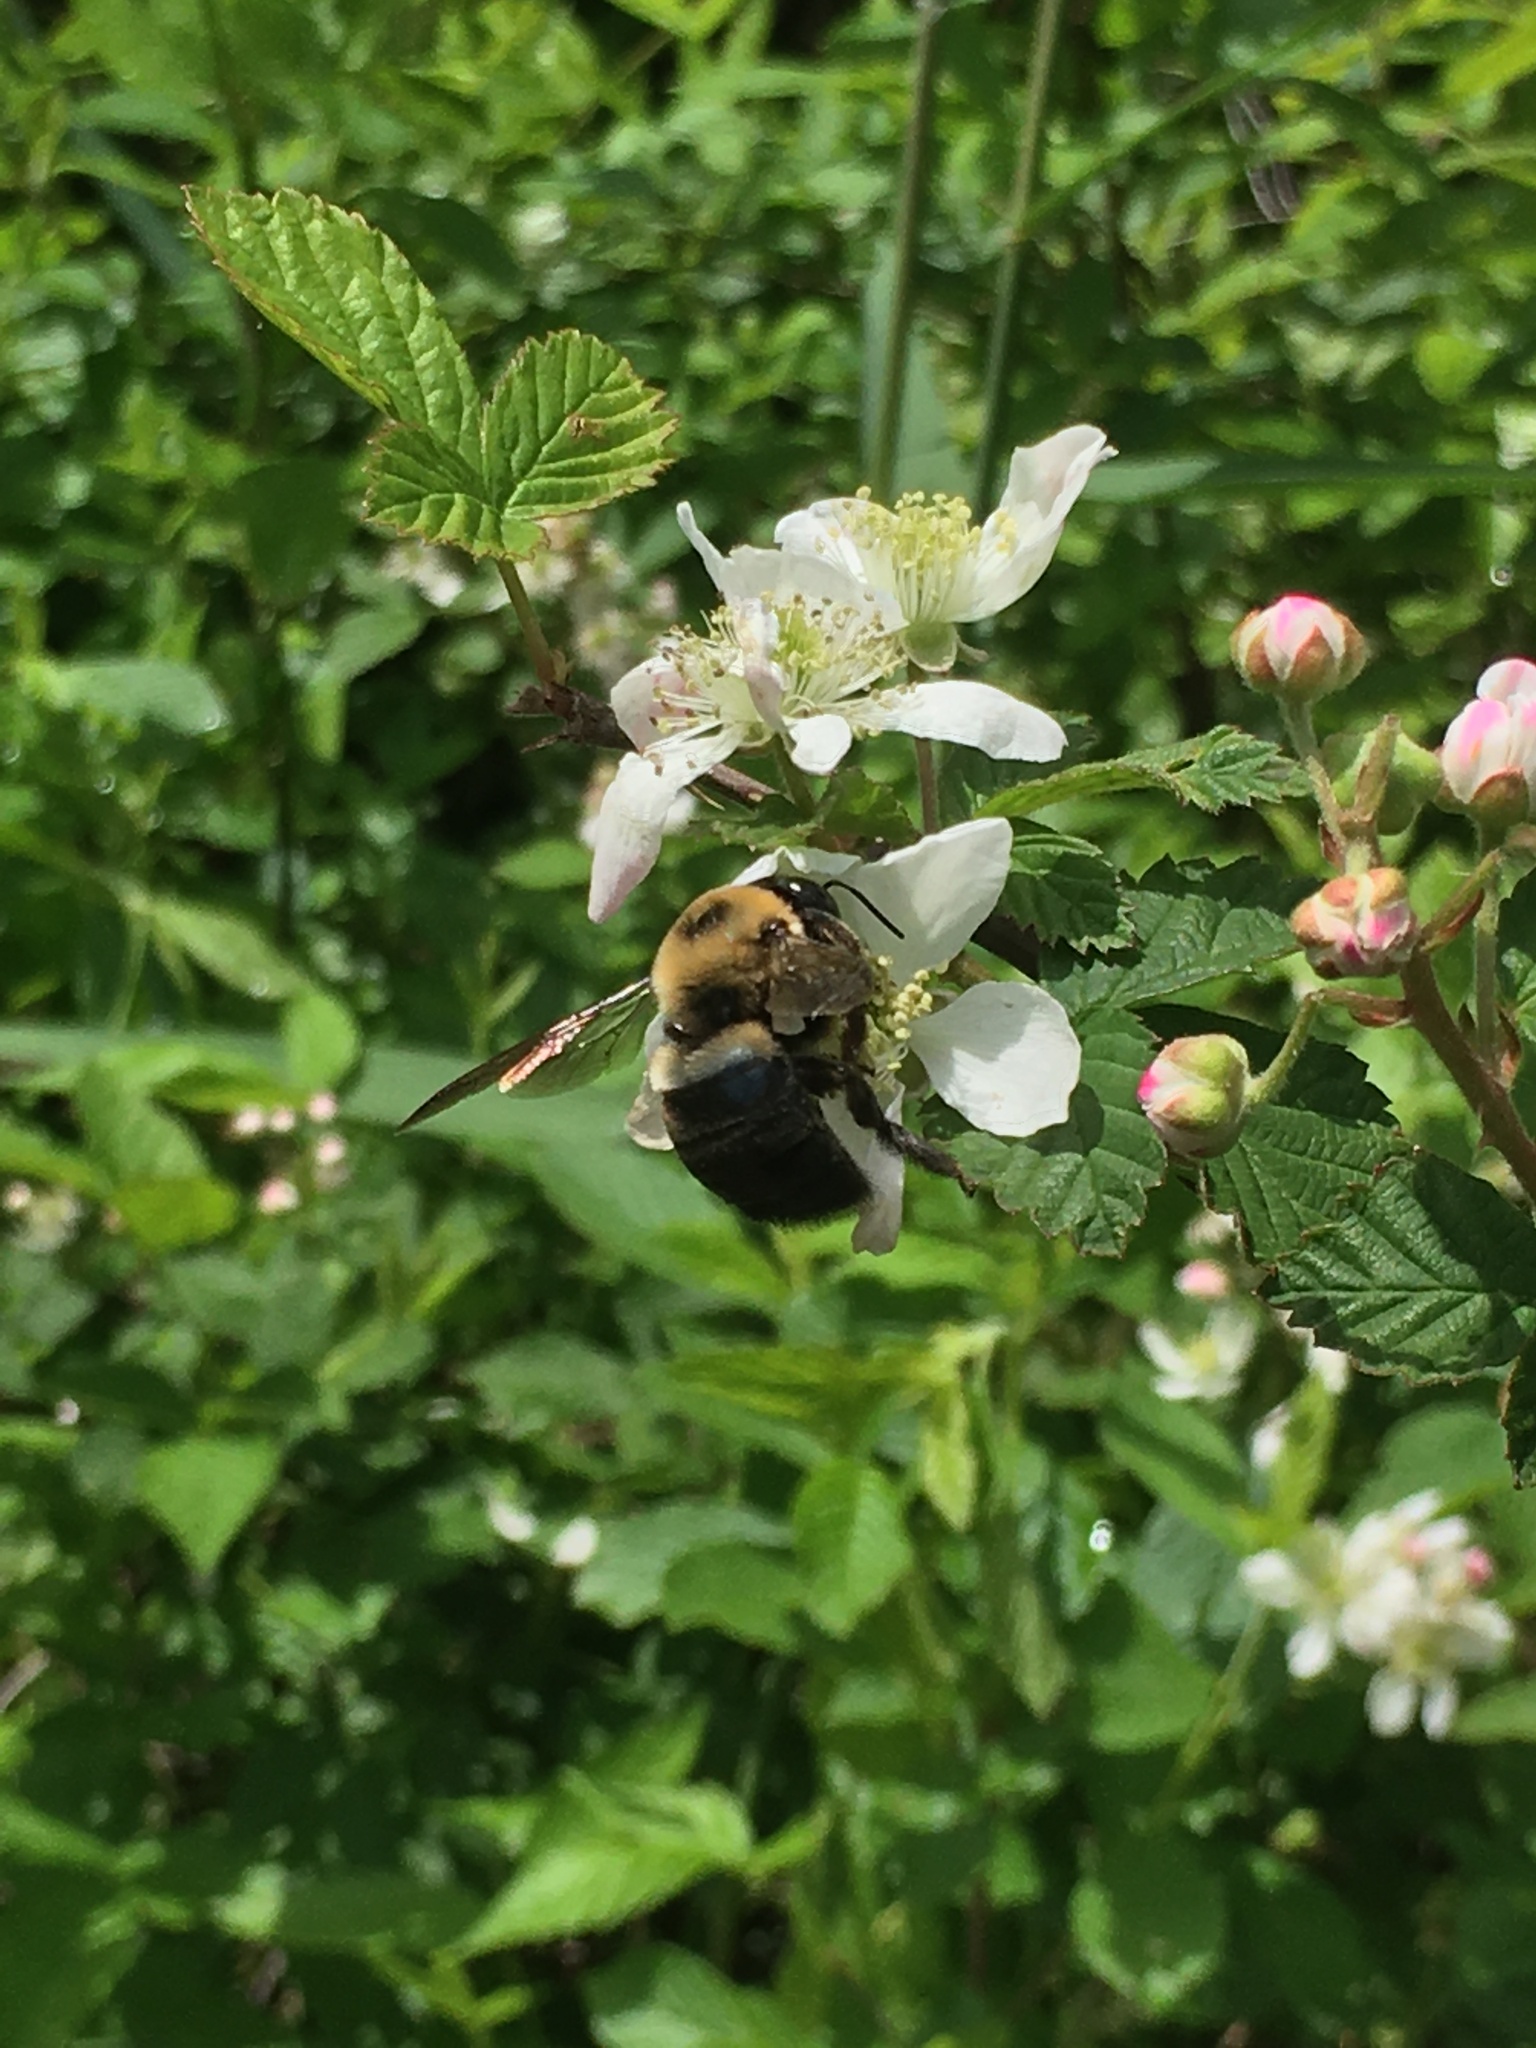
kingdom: Animalia
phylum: Arthropoda
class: Insecta
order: Hymenoptera
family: Apidae
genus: Xylocopa
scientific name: Xylocopa virginica
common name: Carpenter bee
